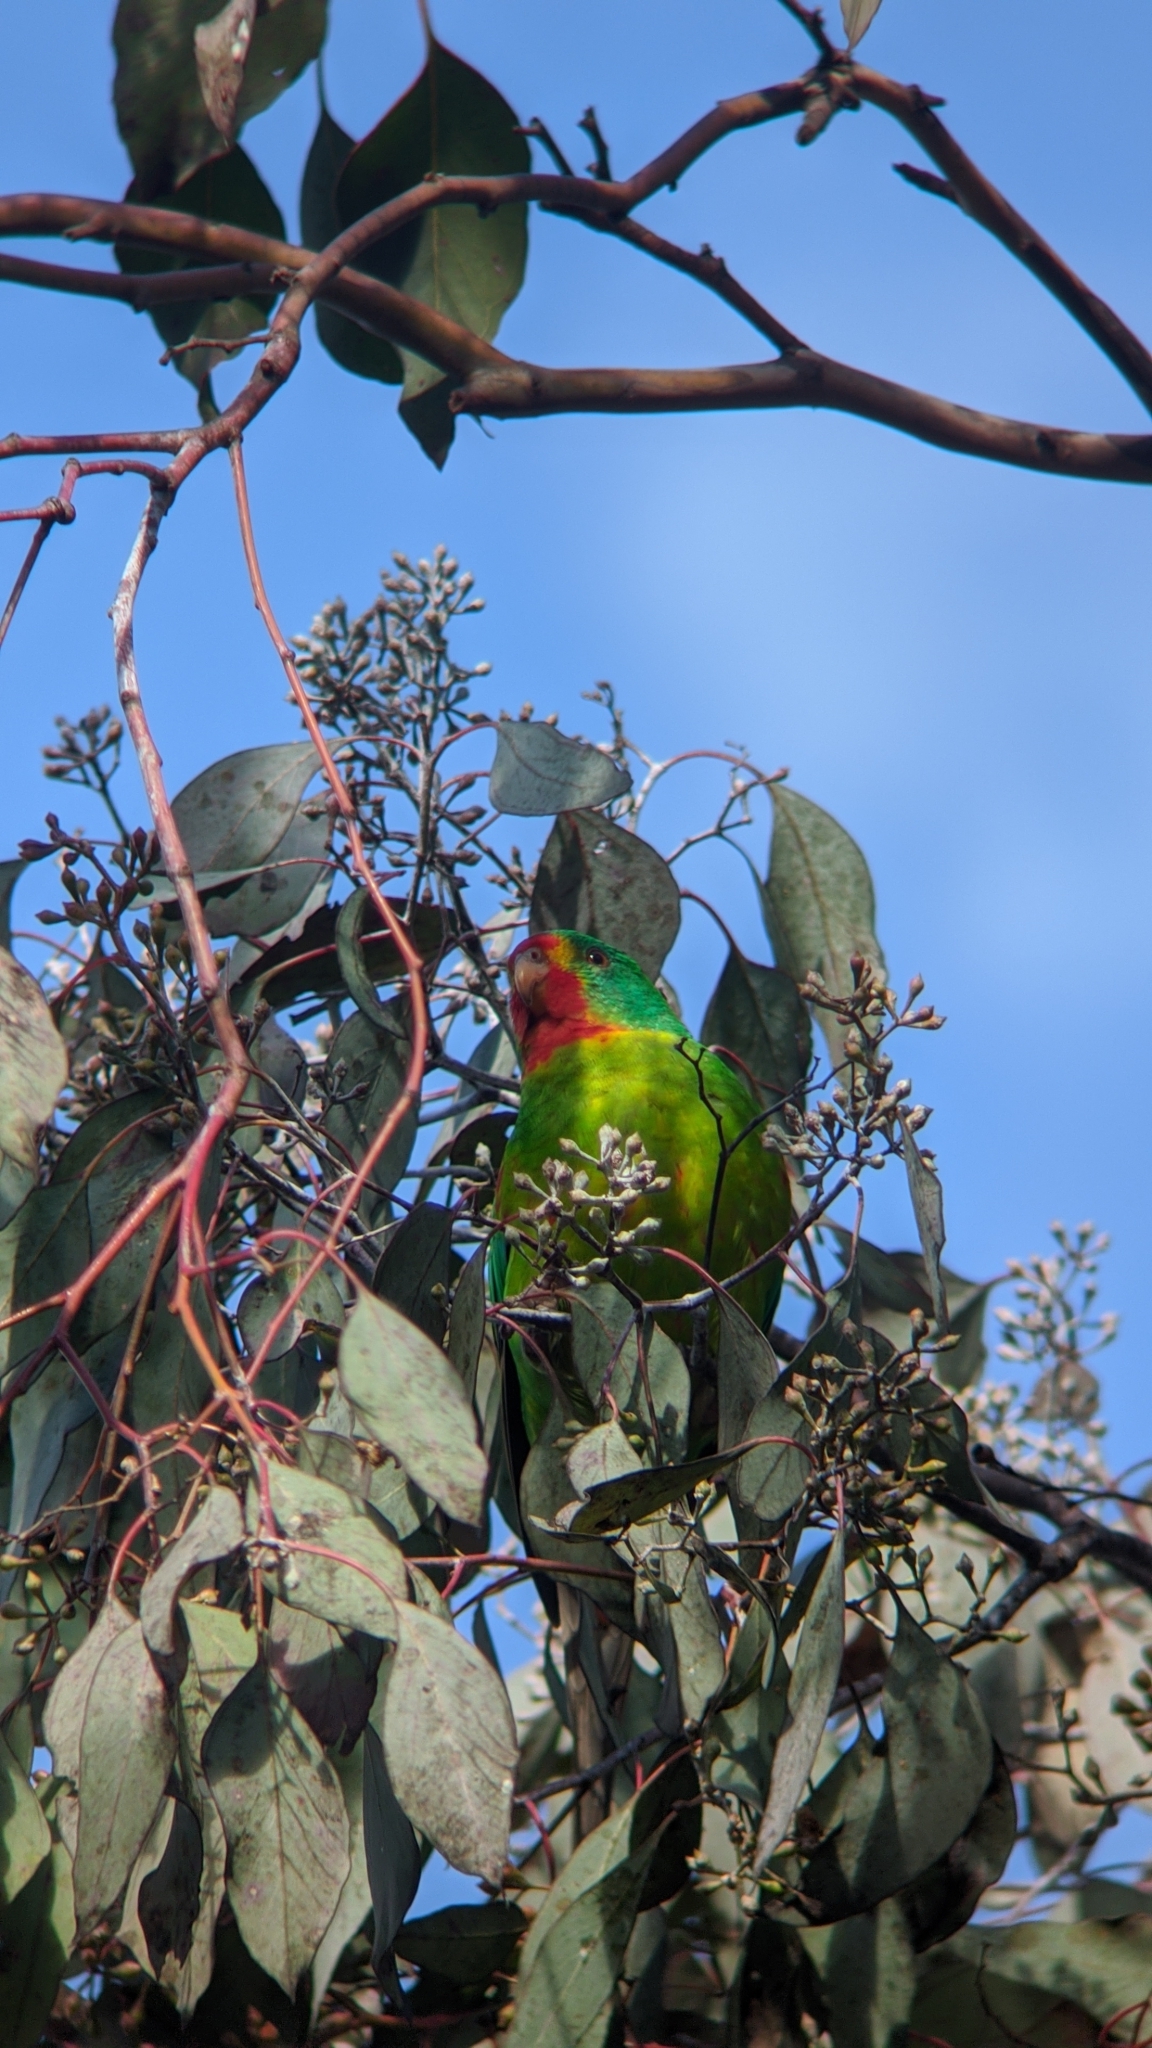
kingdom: Animalia
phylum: Chordata
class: Aves
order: Psittaciformes
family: Psittacidae
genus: Lathamus
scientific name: Lathamus discolor
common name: Swift parrot
